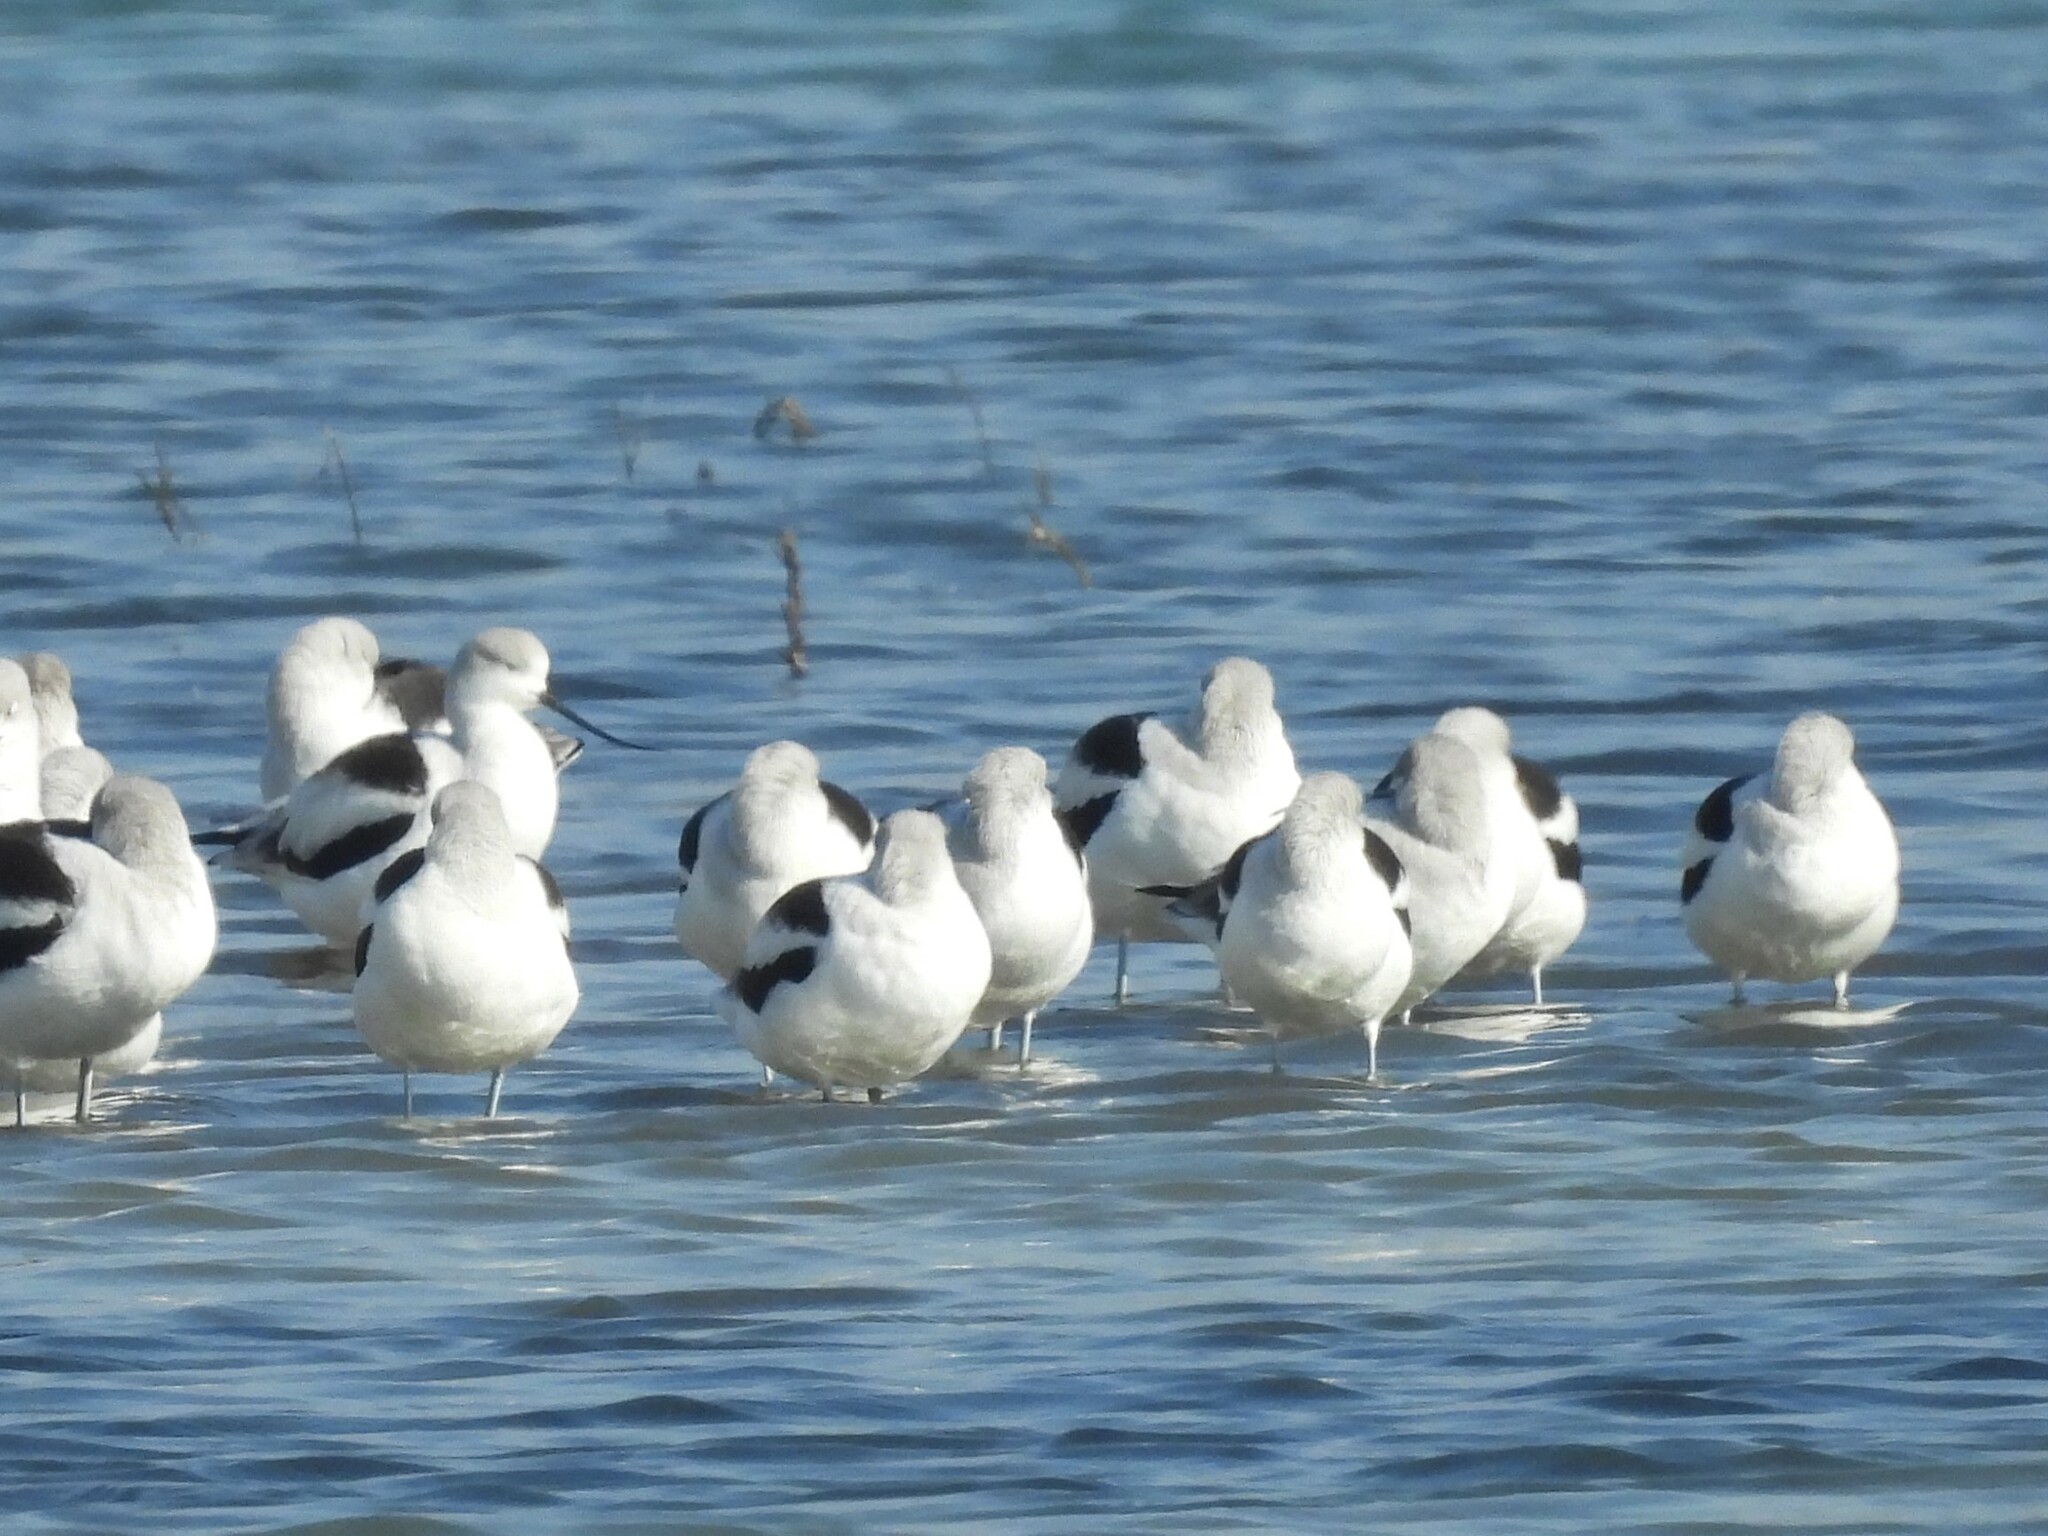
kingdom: Animalia
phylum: Chordata
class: Aves
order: Charadriiformes
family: Recurvirostridae
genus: Recurvirostra
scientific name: Recurvirostra americana
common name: American avocet
